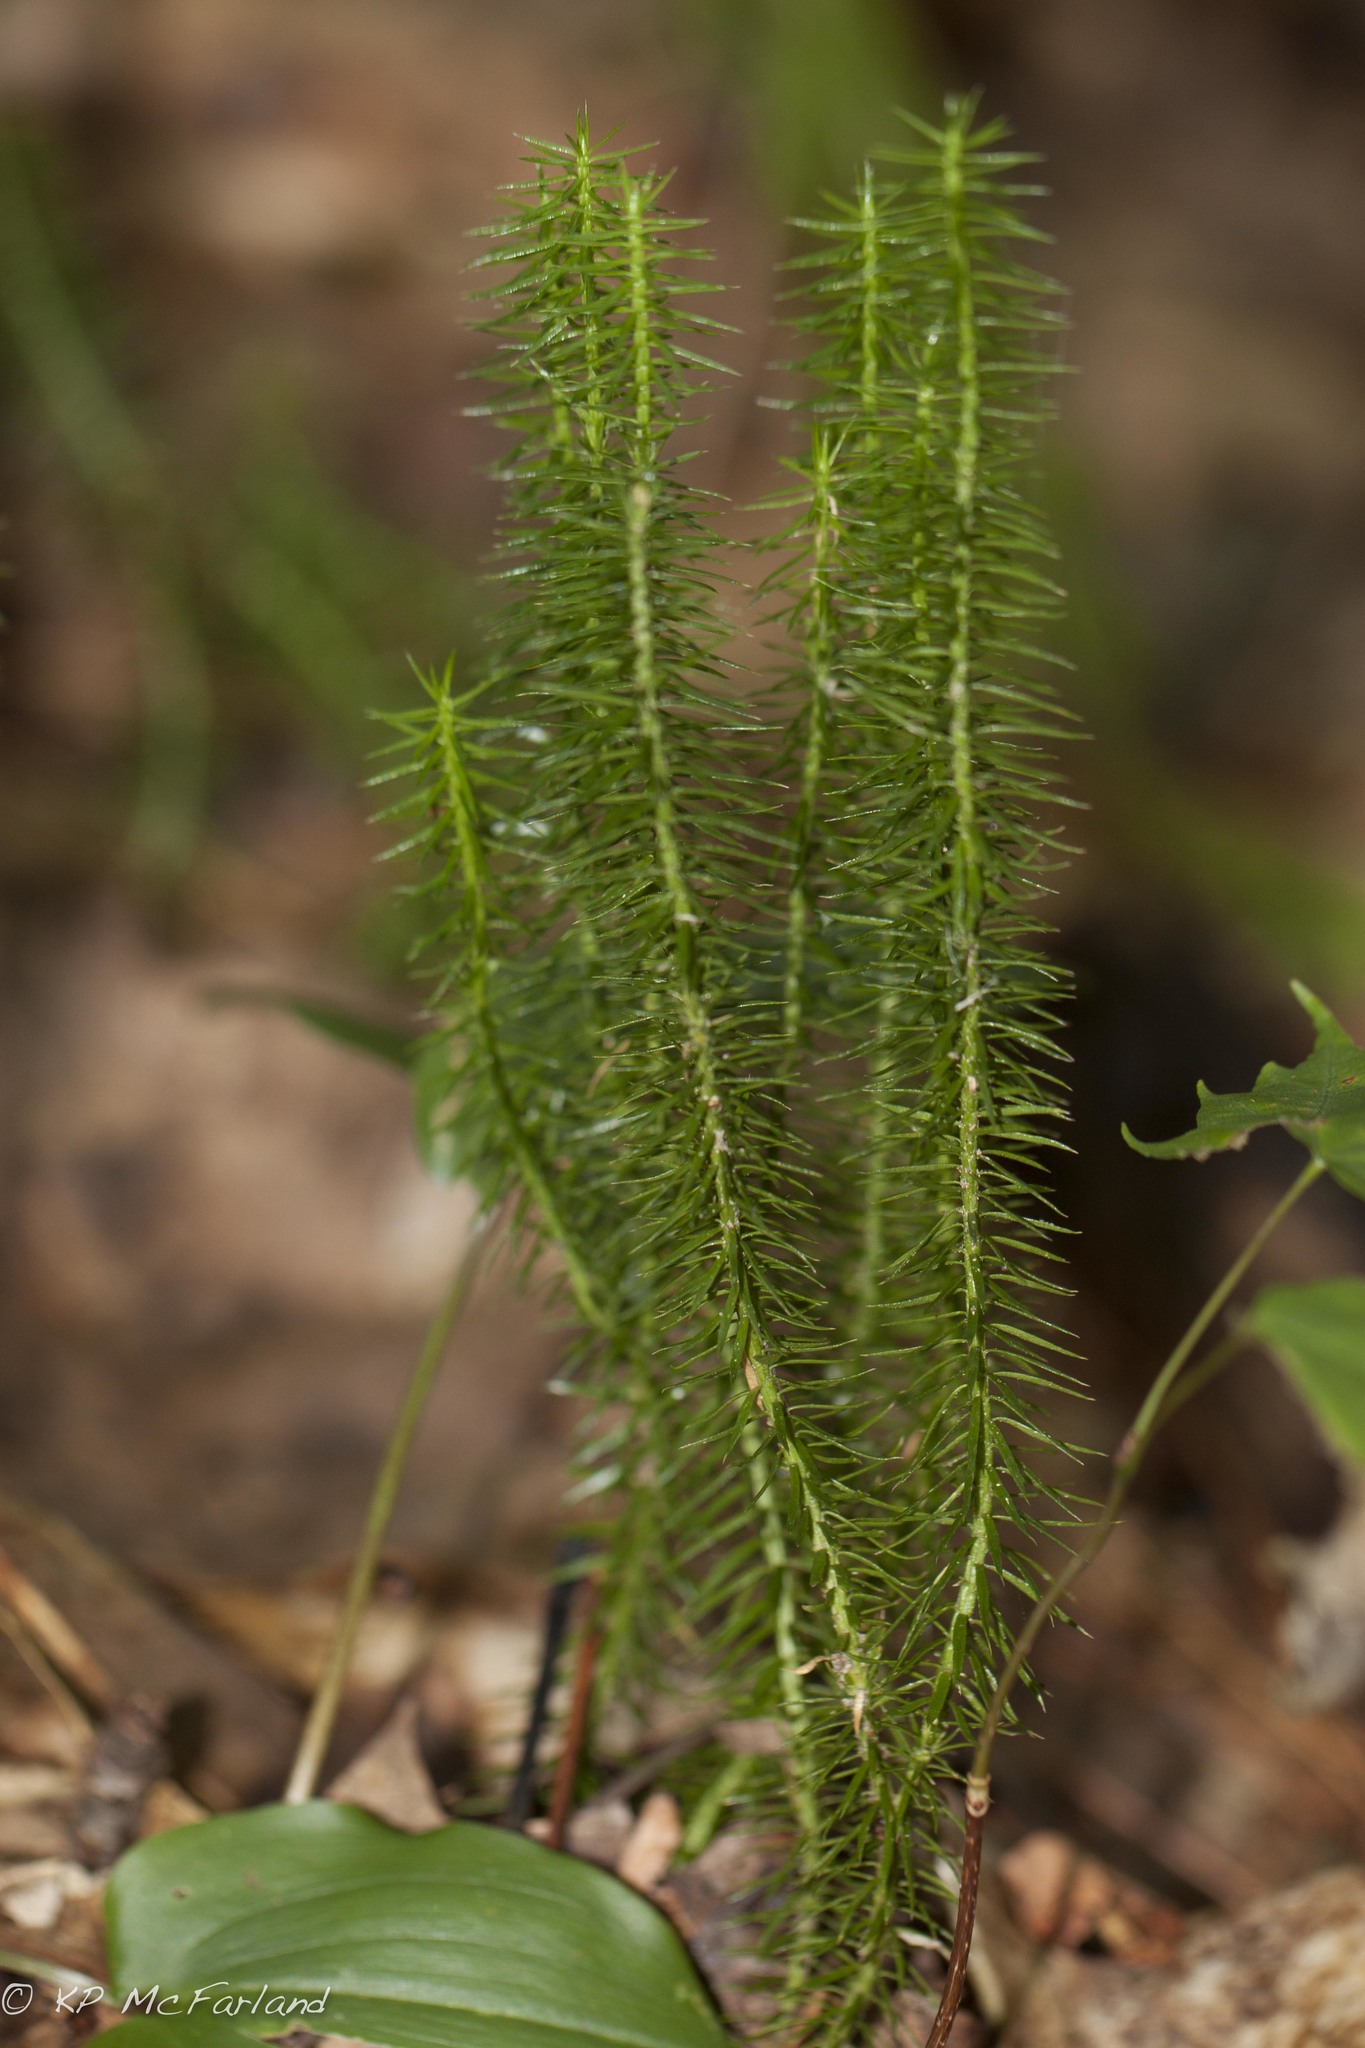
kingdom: Plantae
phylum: Tracheophyta
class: Lycopodiopsida
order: Lycopodiales
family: Lycopodiaceae
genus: Huperzia
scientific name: Huperzia lucidula
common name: Shining clubmoss
